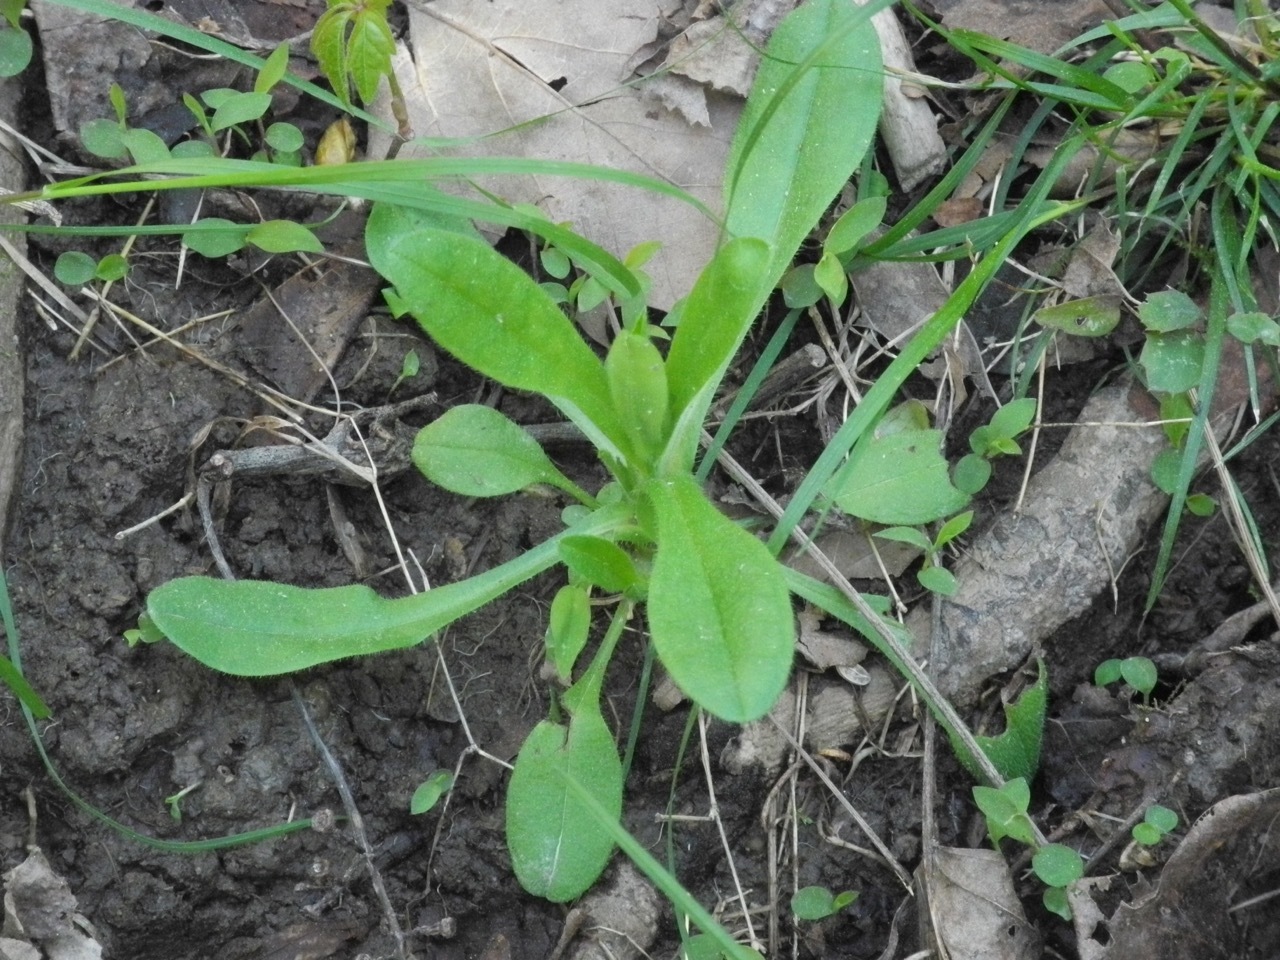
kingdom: Plantae
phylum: Tracheophyta
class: Magnoliopsida
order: Boraginales
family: Boraginaceae
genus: Myosotis
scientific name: Myosotis macrosperma
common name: Large-seed forget-me-not
